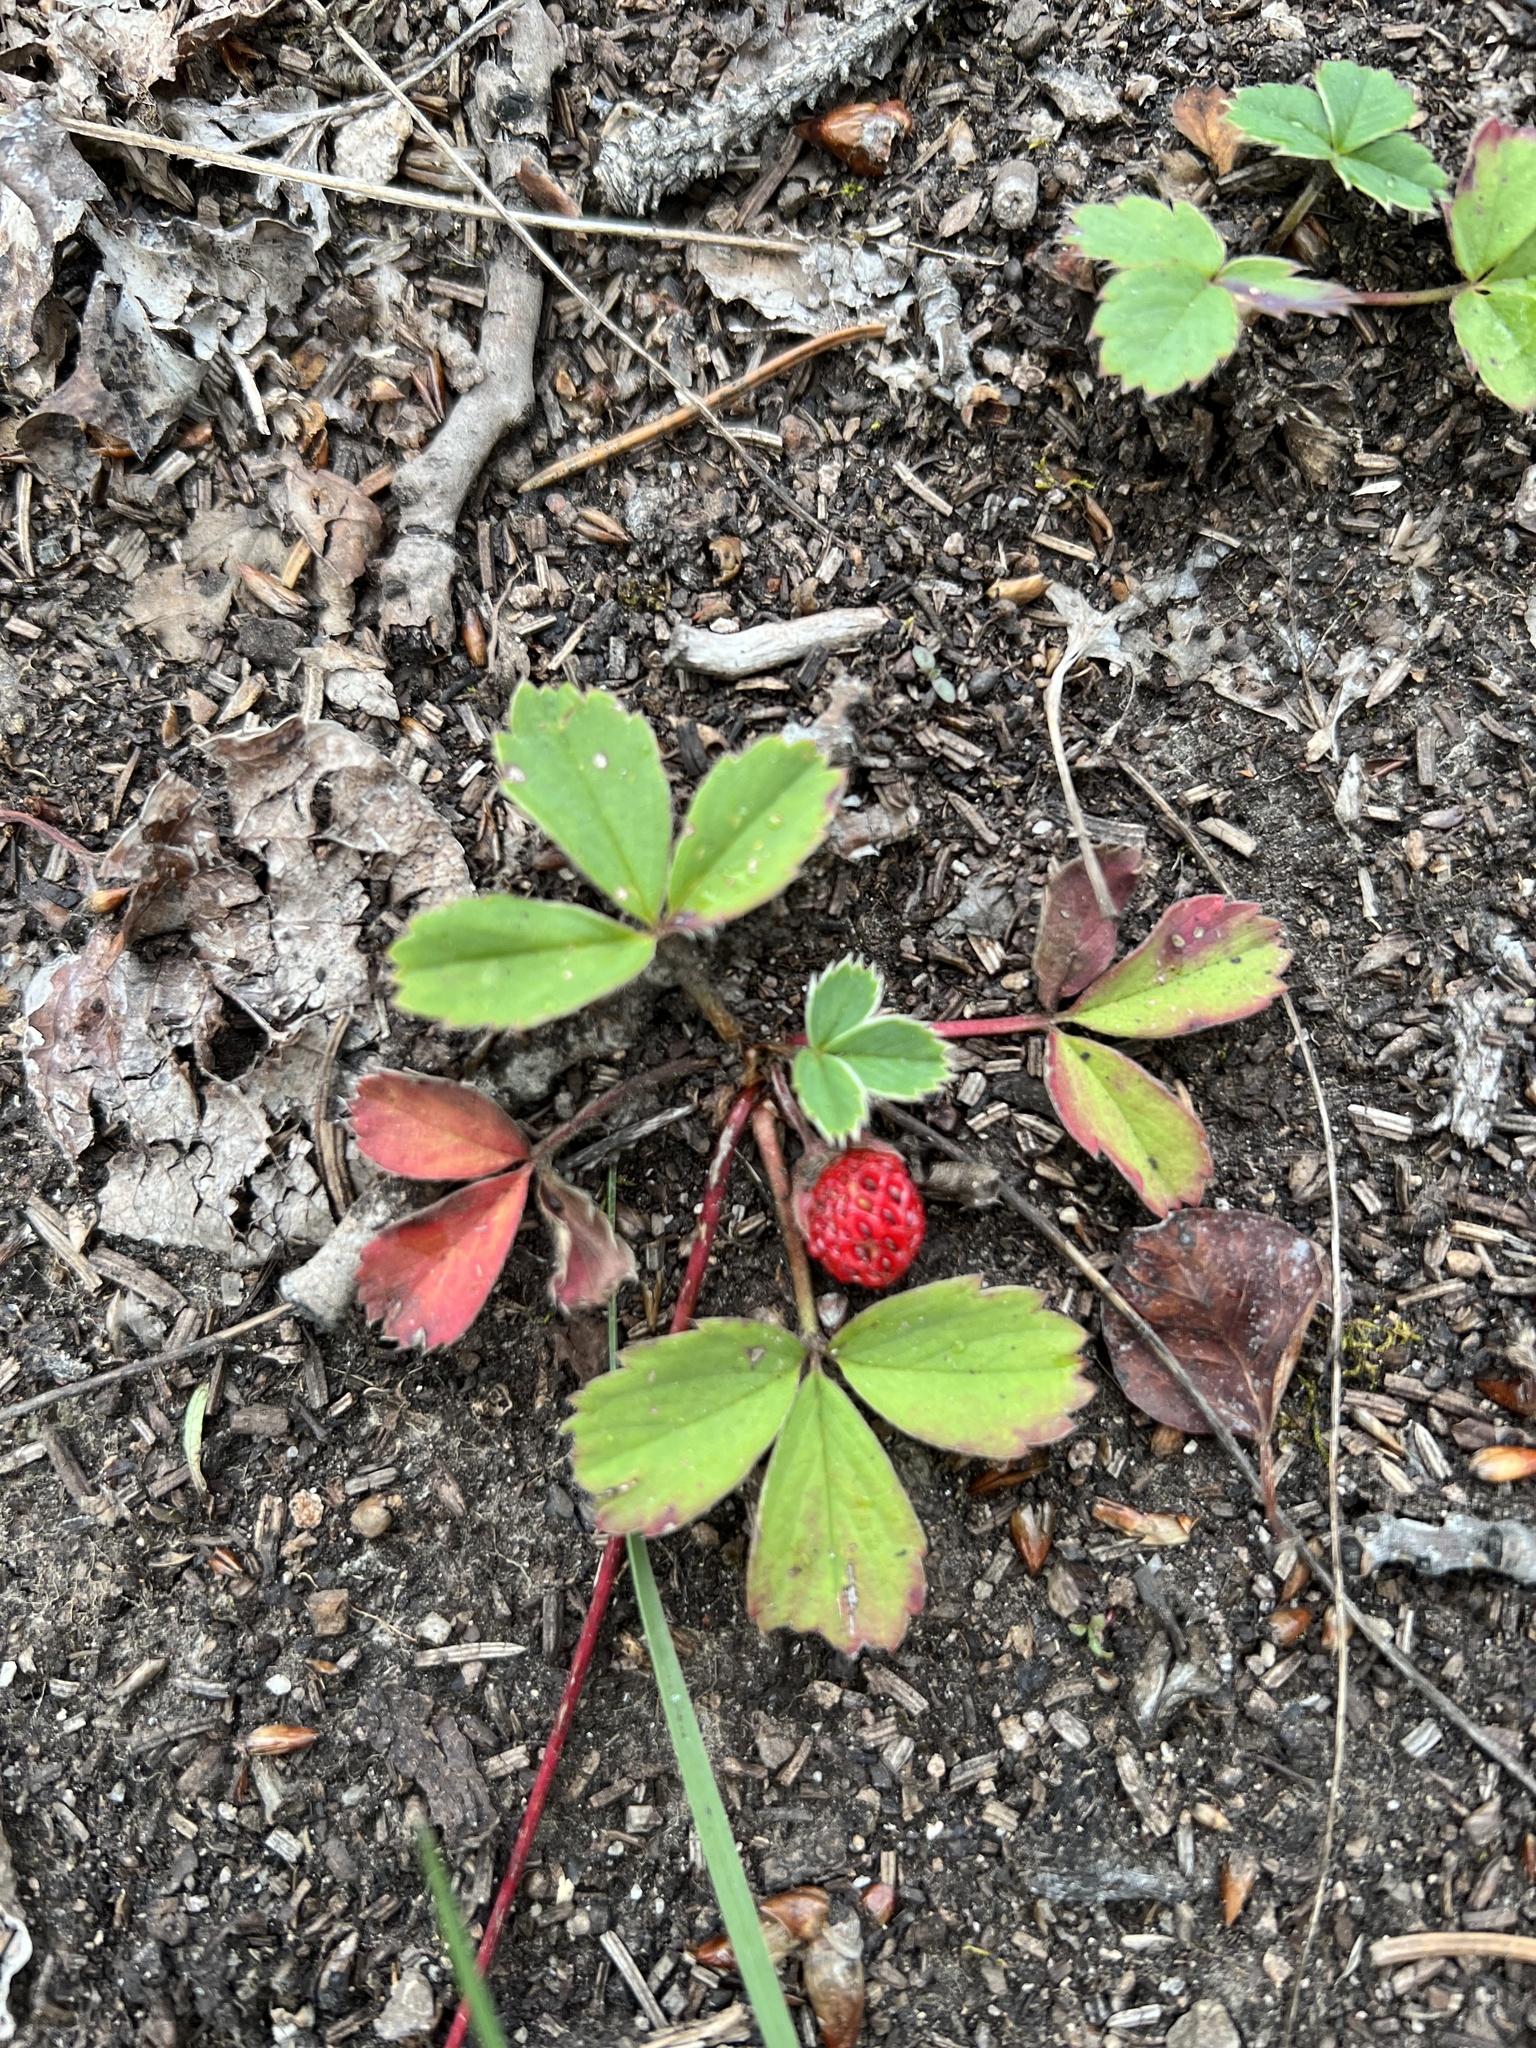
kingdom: Plantae
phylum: Tracheophyta
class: Magnoliopsida
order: Rosales
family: Rosaceae
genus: Fragaria
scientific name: Fragaria virginiana
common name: Thickleaved wild strawberry
